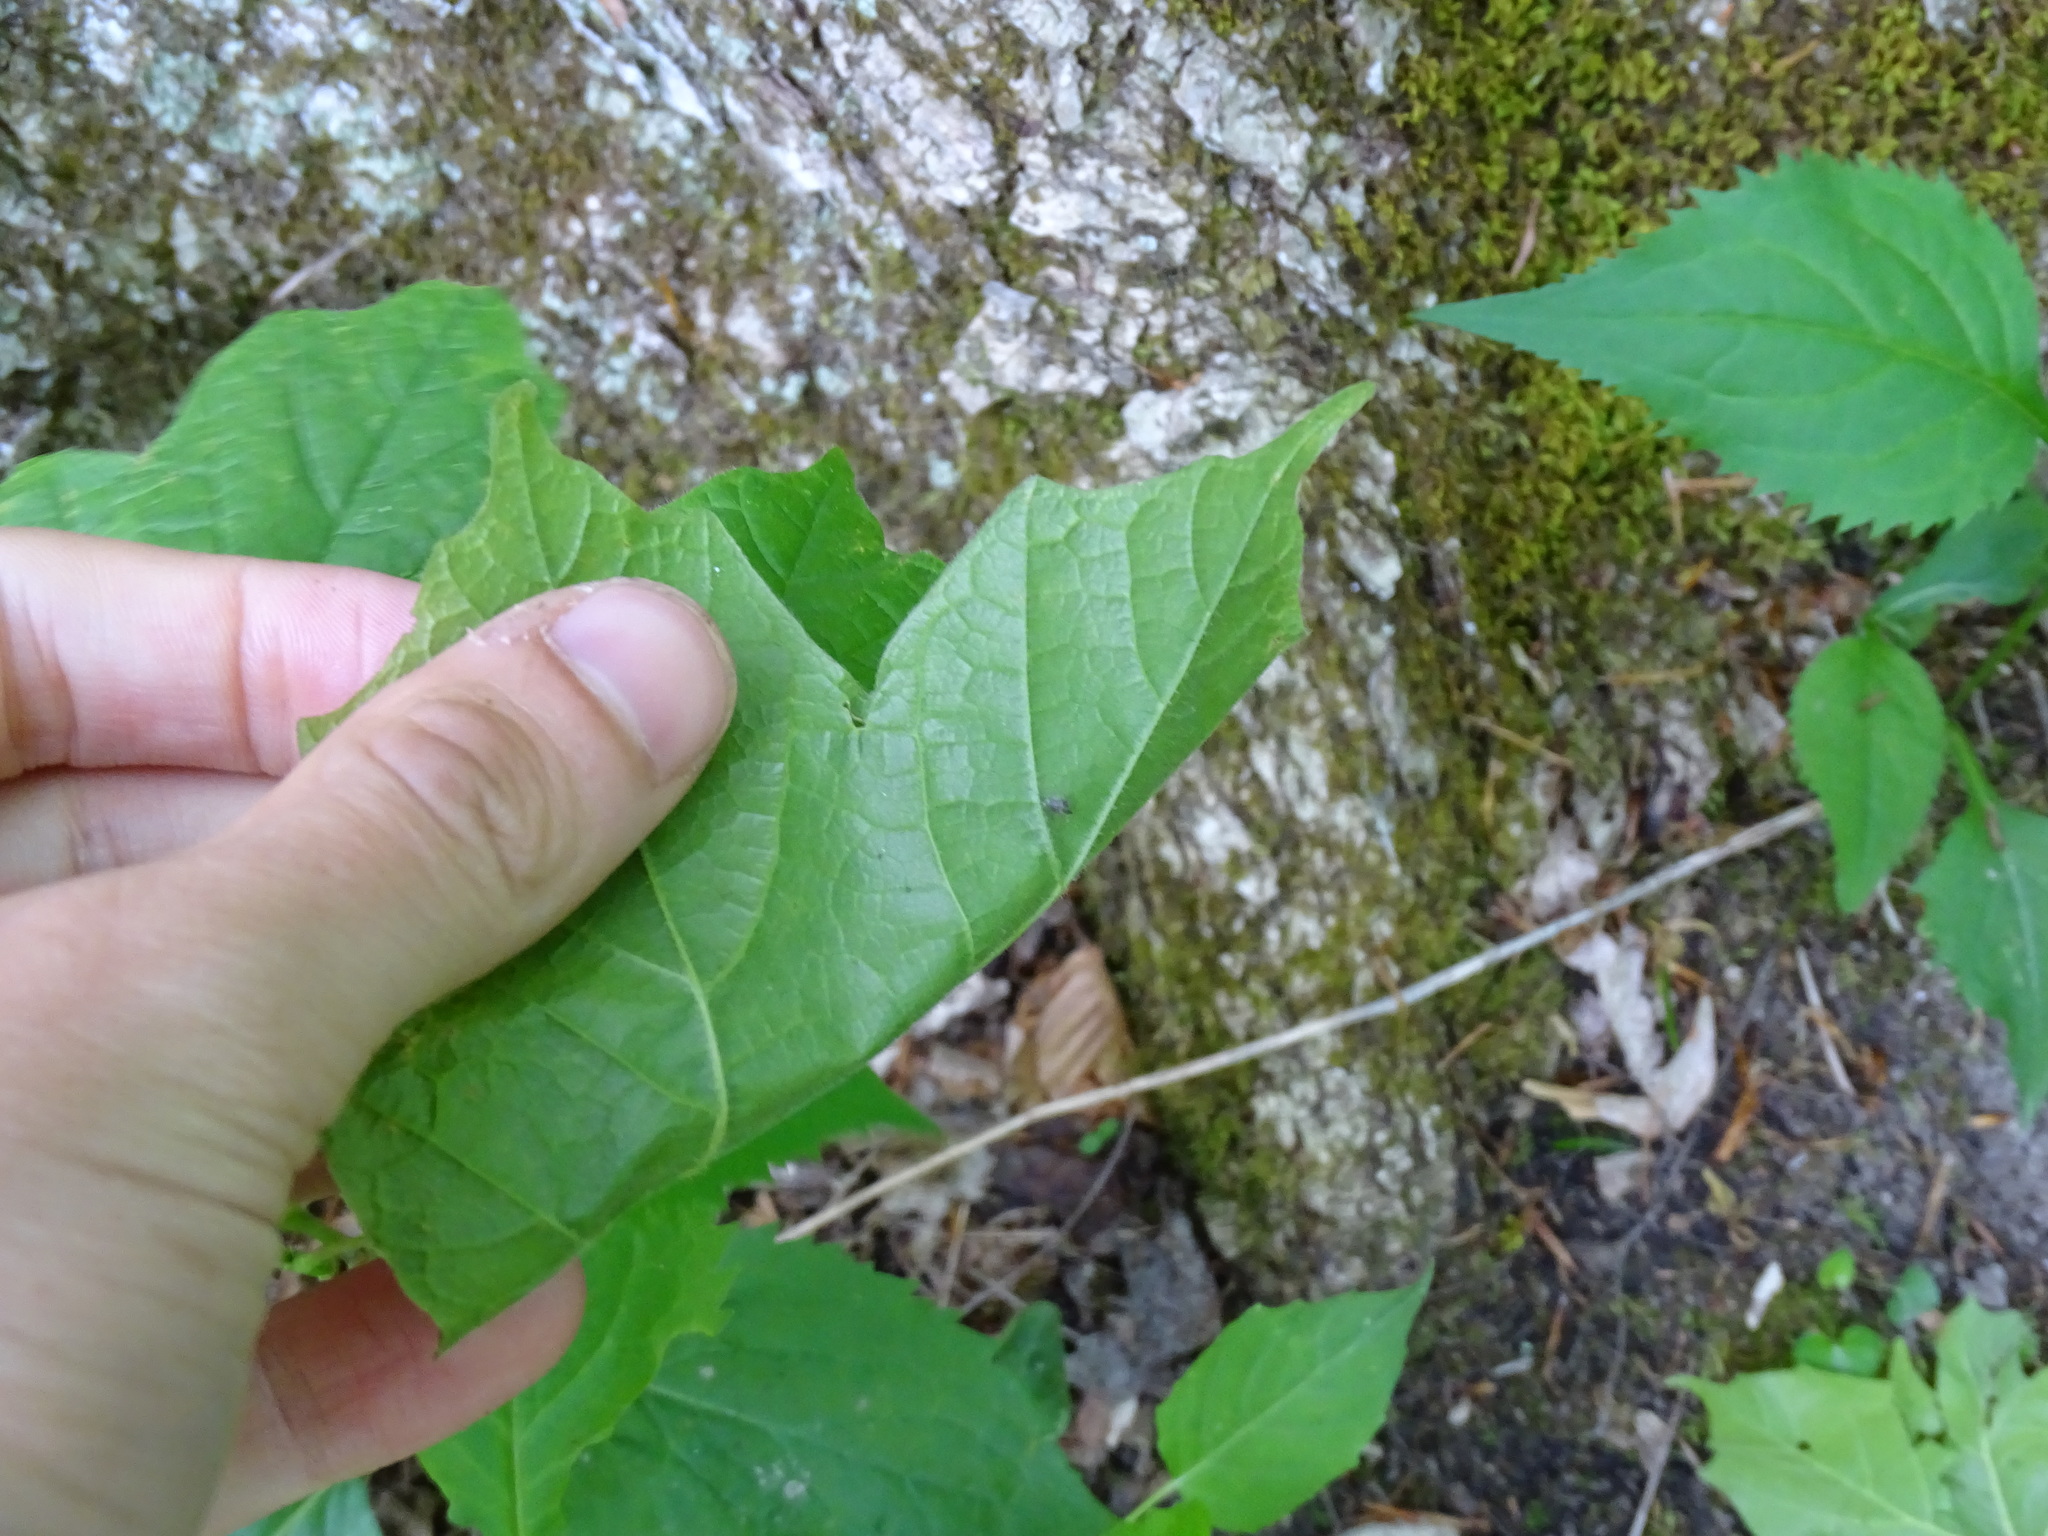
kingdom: Plantae
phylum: Tracheophyta
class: Magnoliopsida
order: Sapindales
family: Sapindaceae
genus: Acer
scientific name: Acer nigrum
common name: Black maple
